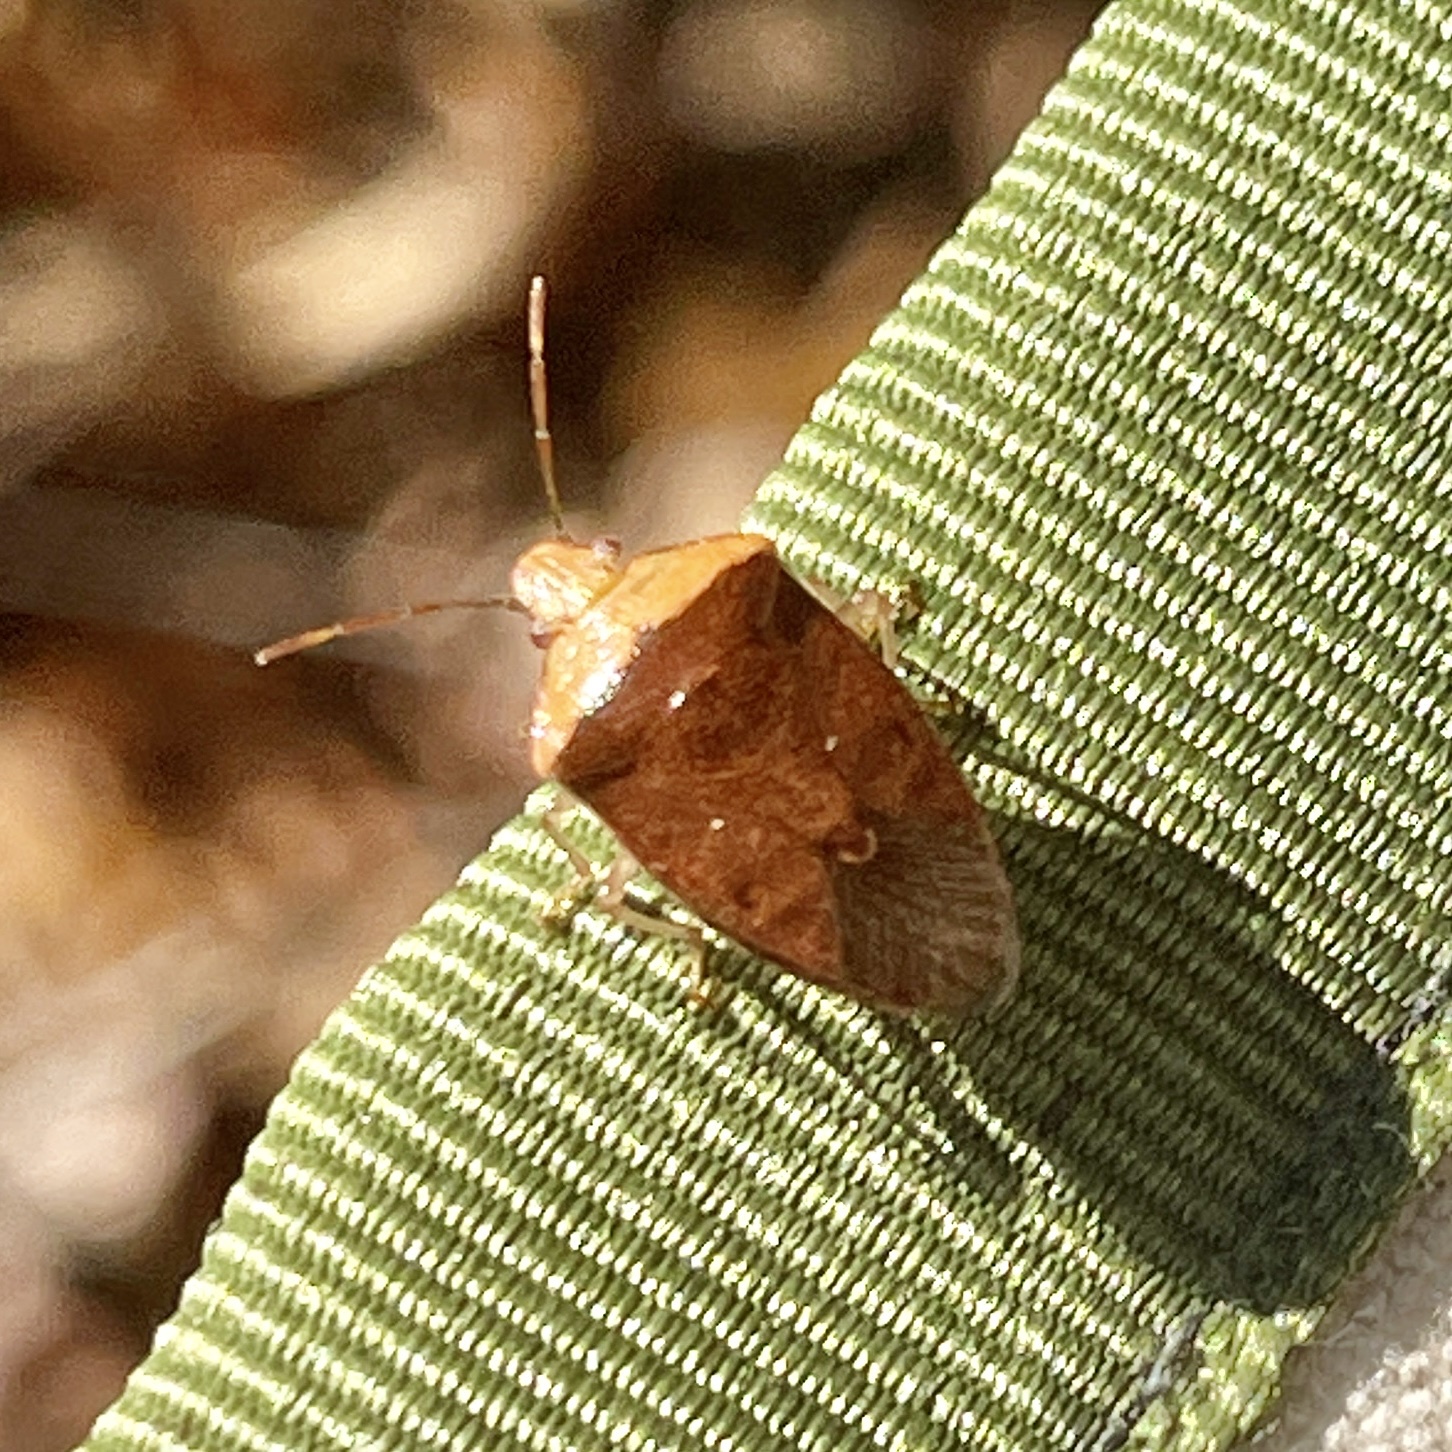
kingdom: Animalia
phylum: Arthropoda
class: Insecta
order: Hemiptera
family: Pentatomidae
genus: Banasa
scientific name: Banasa calva
